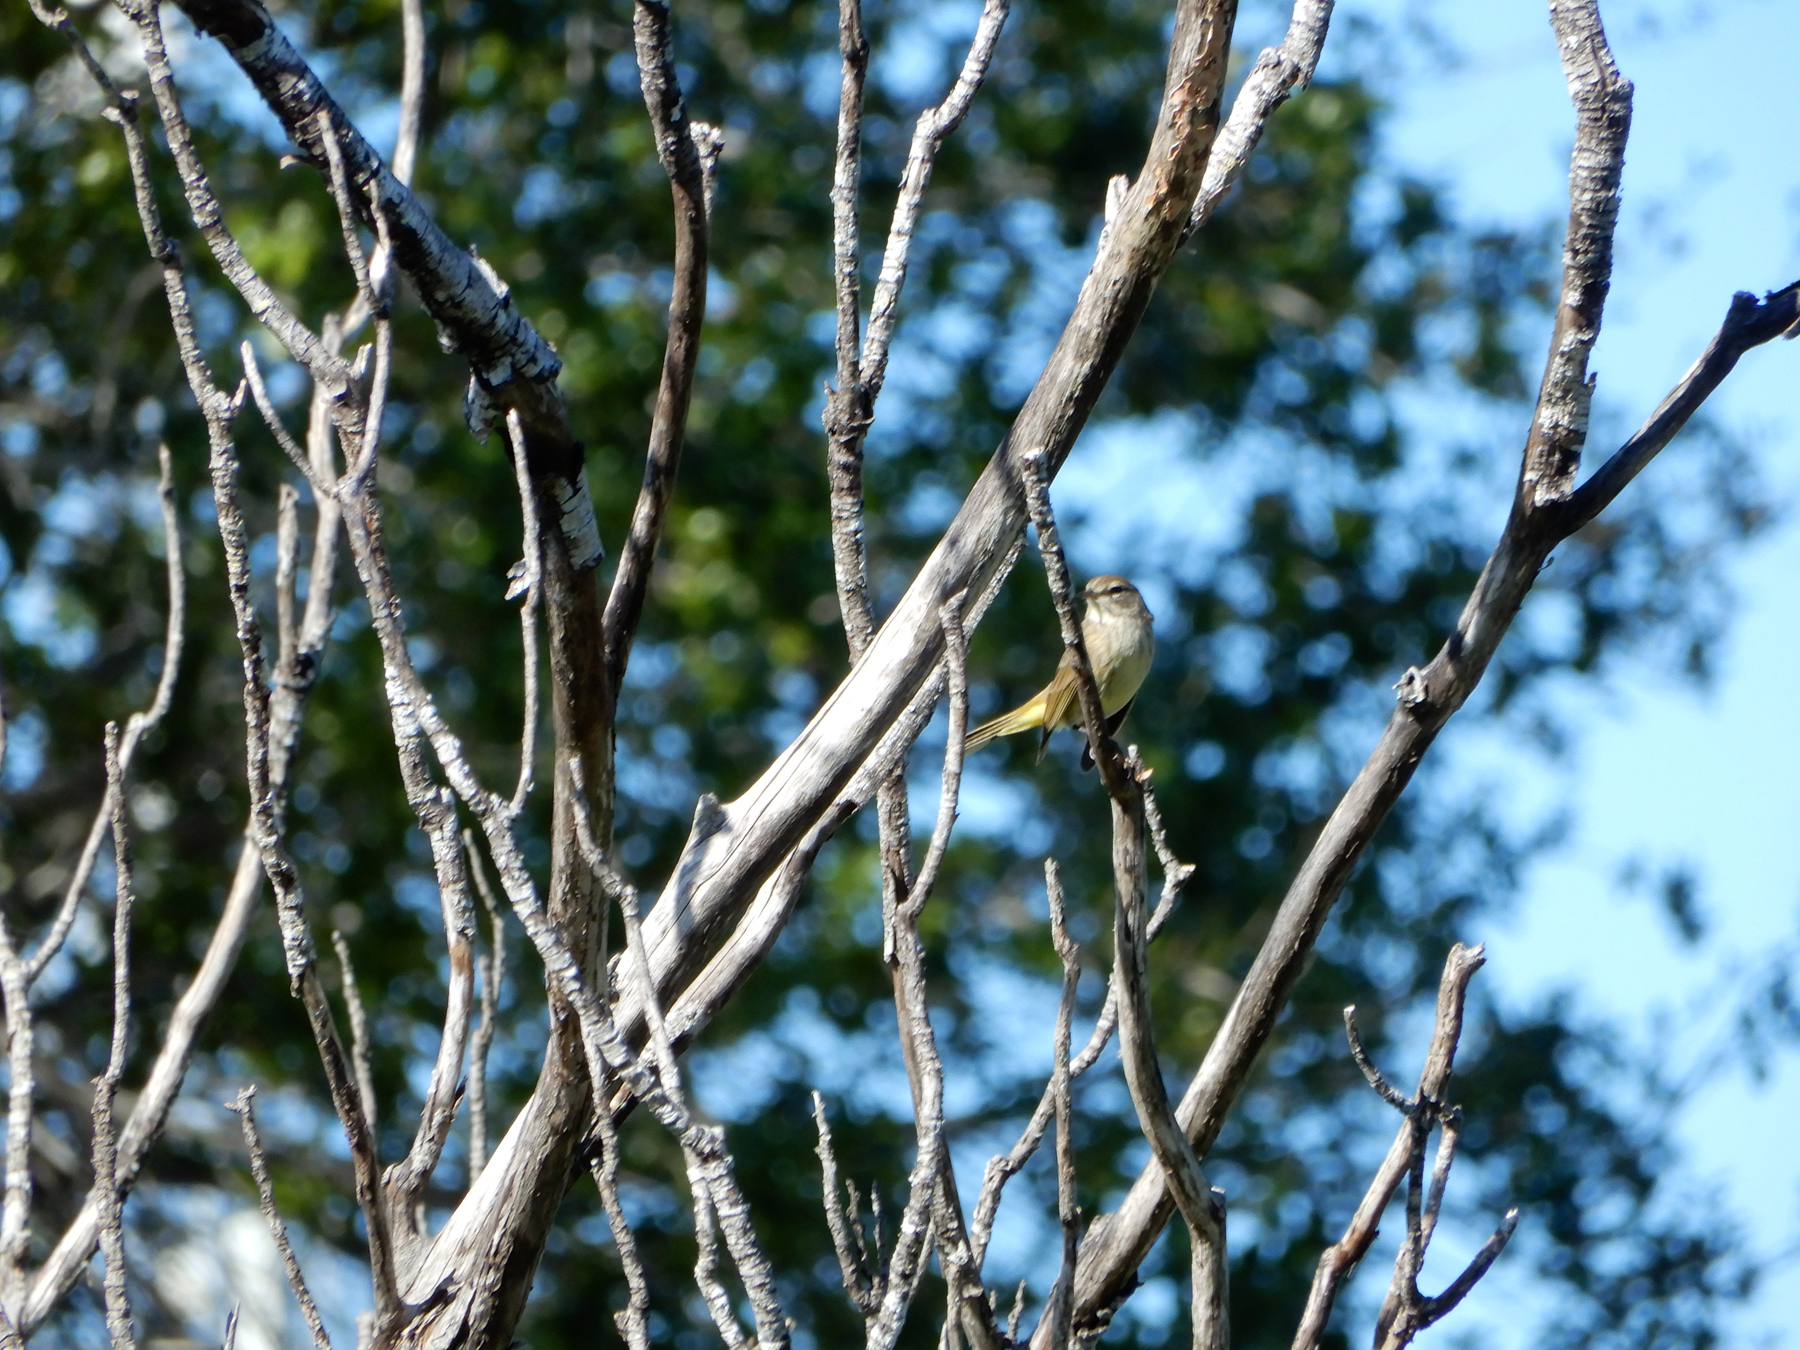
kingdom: Animalia
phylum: Chordata
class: Aves
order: Passeriformes
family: Parulidae
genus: Setophaga
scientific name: Setophaga palmarum
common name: Palm warbler
